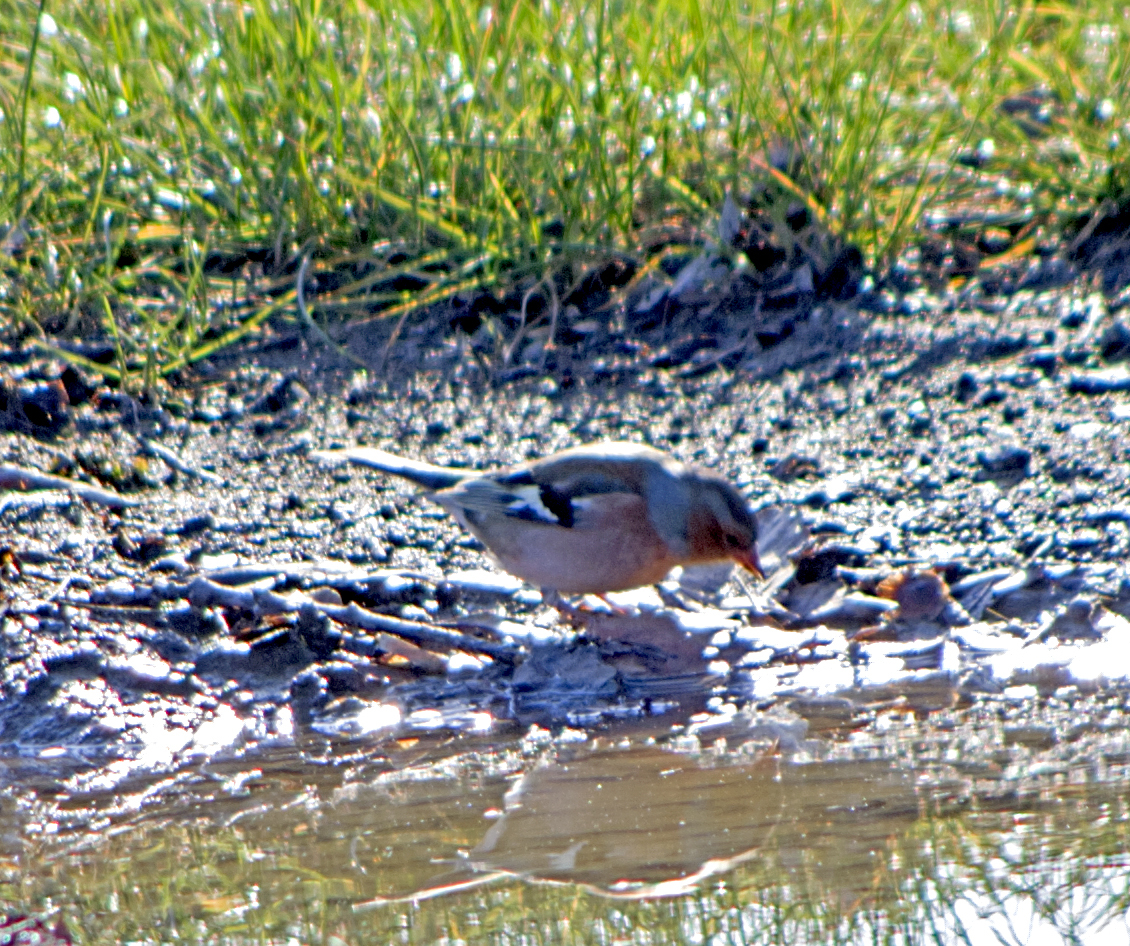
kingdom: Animalia
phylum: Chordata
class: Aves
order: Passeriformes
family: Fringillidae
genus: Fringilla
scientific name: Fringilla coelebs
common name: Common chaffinch
